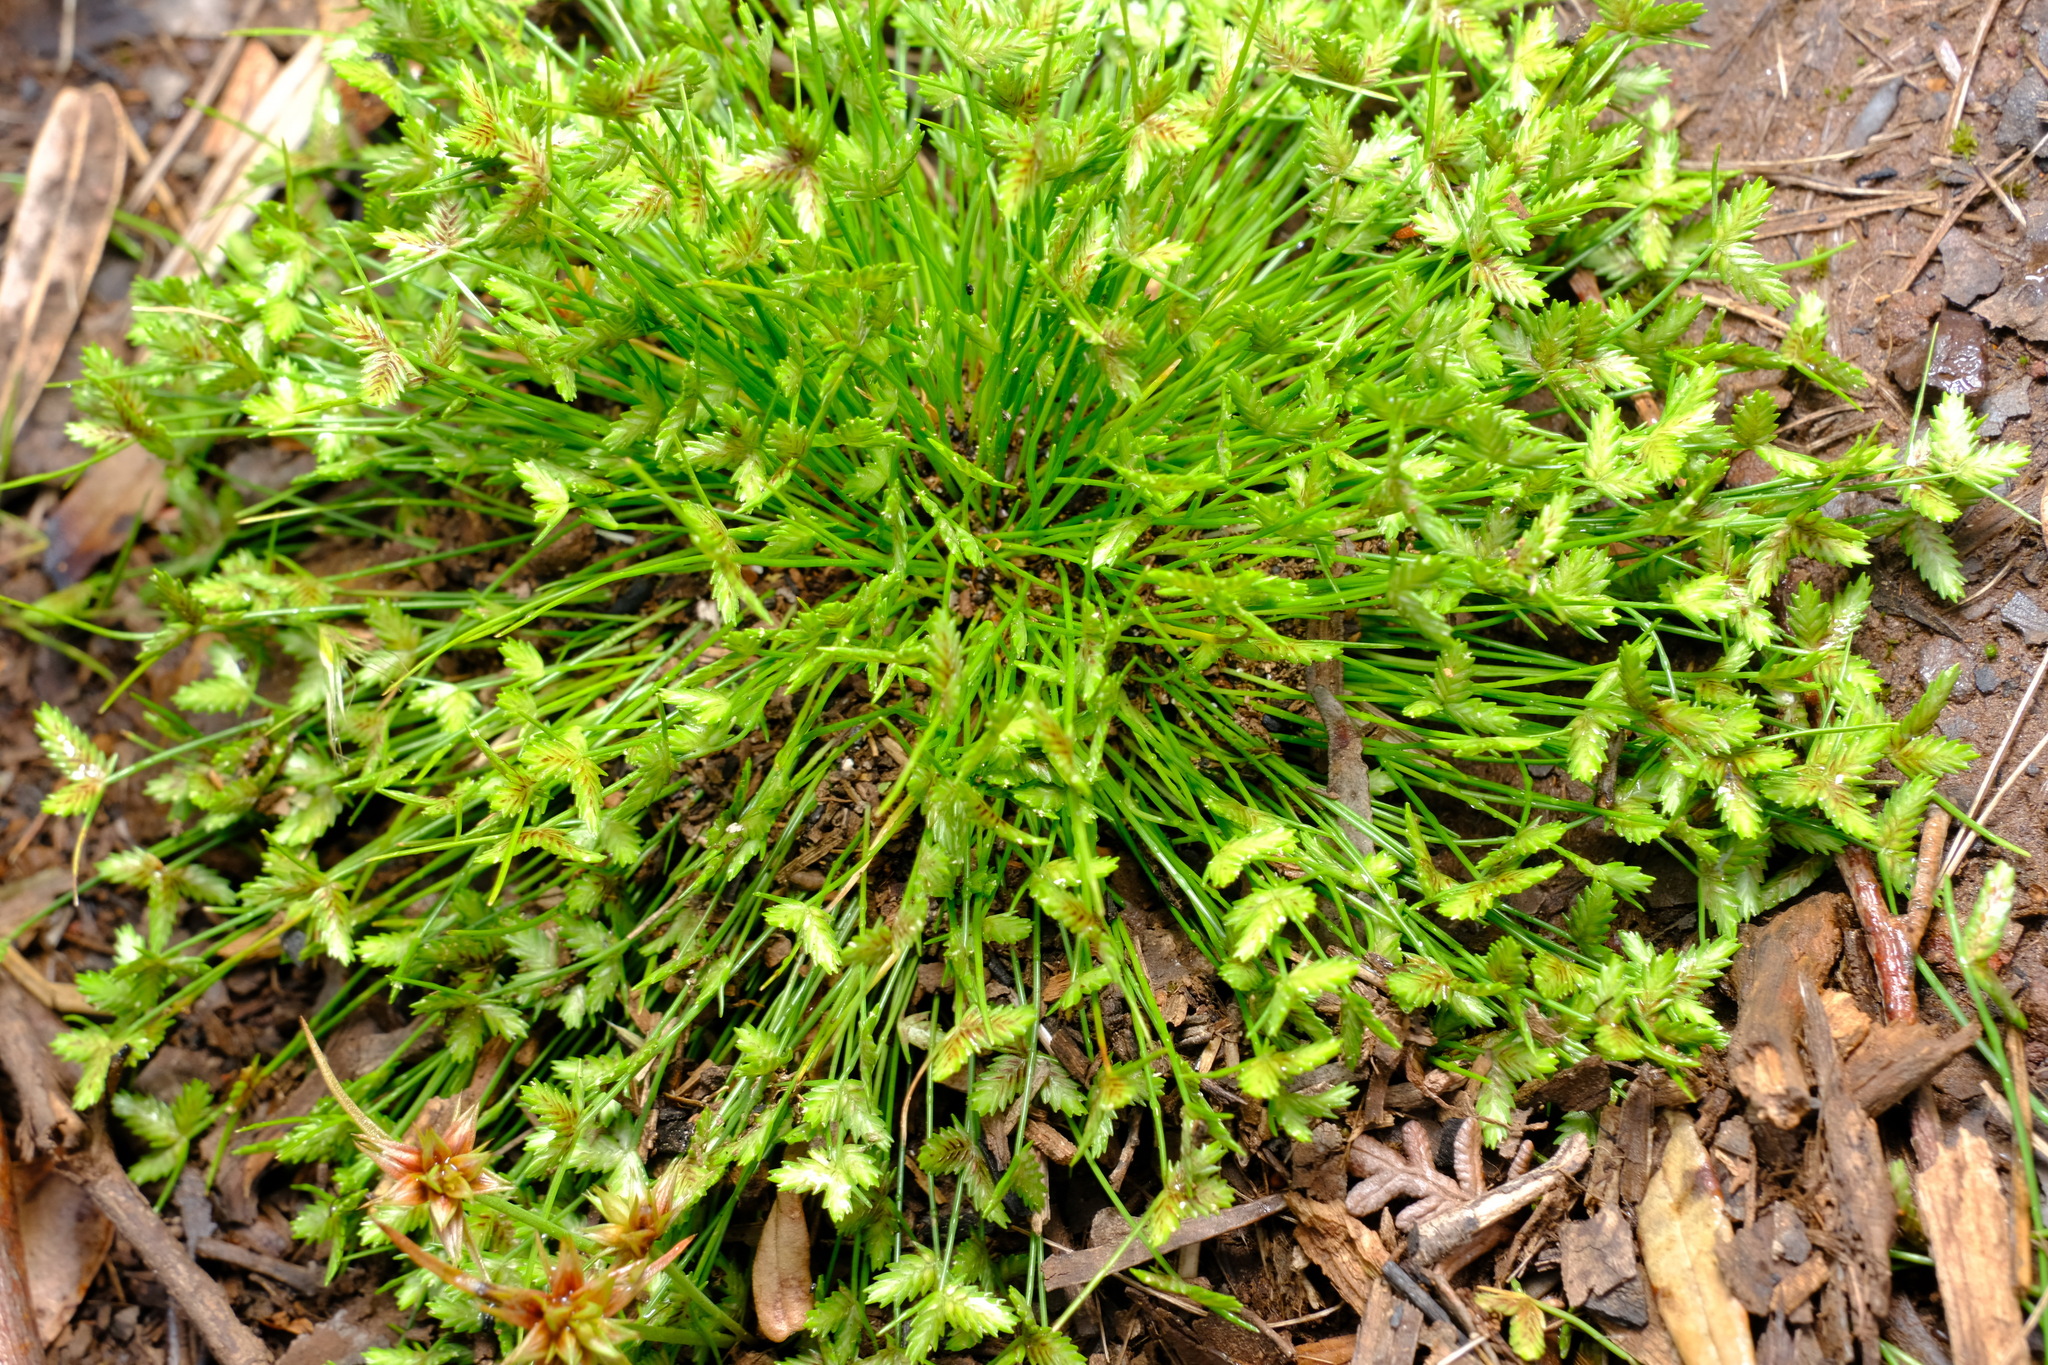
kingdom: Plantae
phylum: Tracheophyta
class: Liliopsida
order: Poales
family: Cyperaceae
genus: Isolepis
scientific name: Isolepis levynsiana
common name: Sedge
